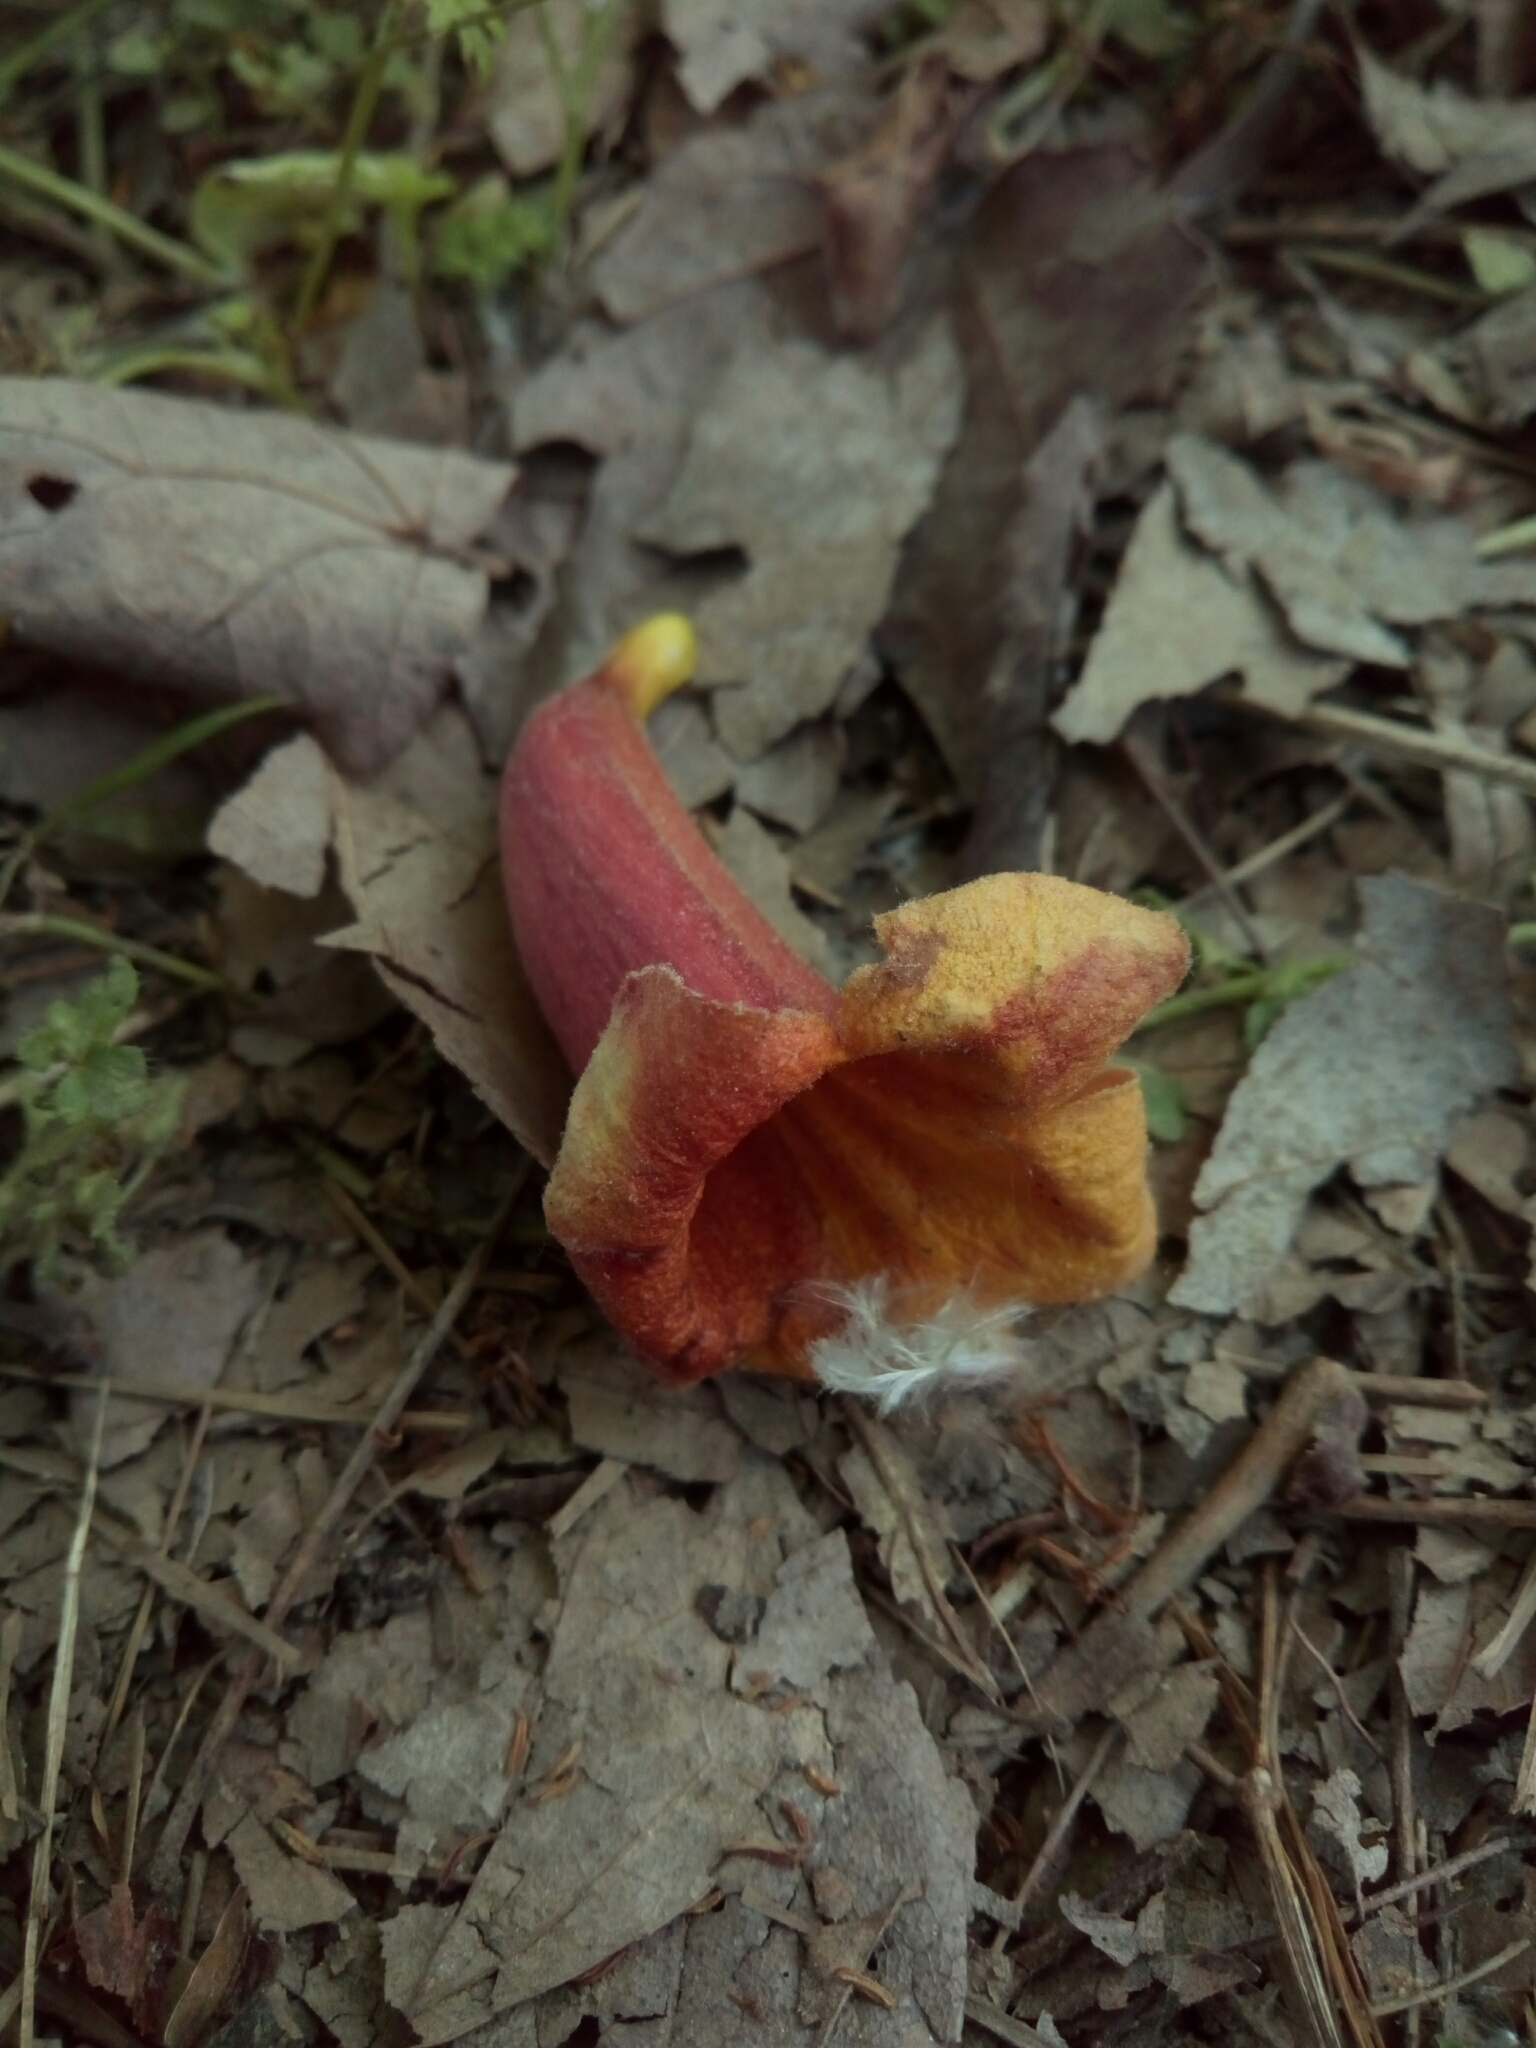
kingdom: Plantae
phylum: Tracheophyta
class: Magnoliopsida
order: Lamiales
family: Bignoniaceae
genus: Bignonia
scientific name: Bignonia capreolata
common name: Crossvine
